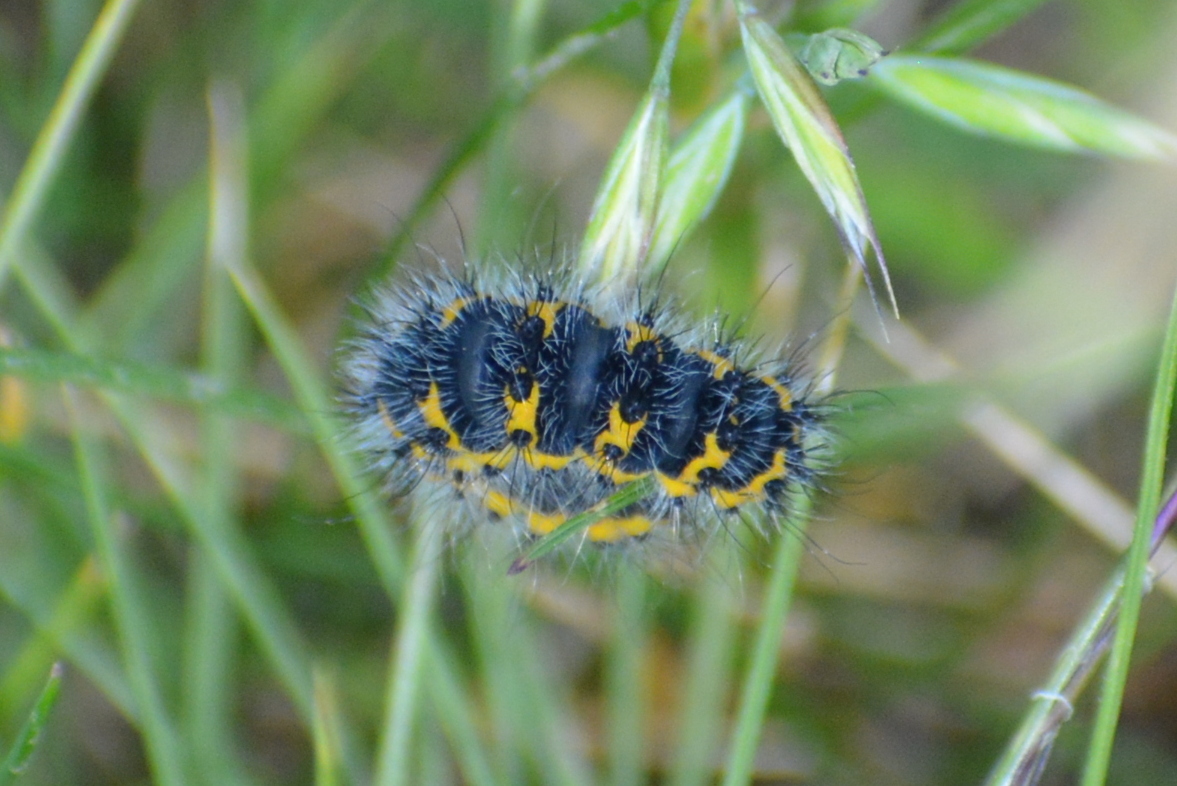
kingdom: Animalia
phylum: Arthropoda
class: Insecta
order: Lepidoptera
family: Saturniidae
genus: Saturnia
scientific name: Saturnia pavonia
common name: Emperor moth
